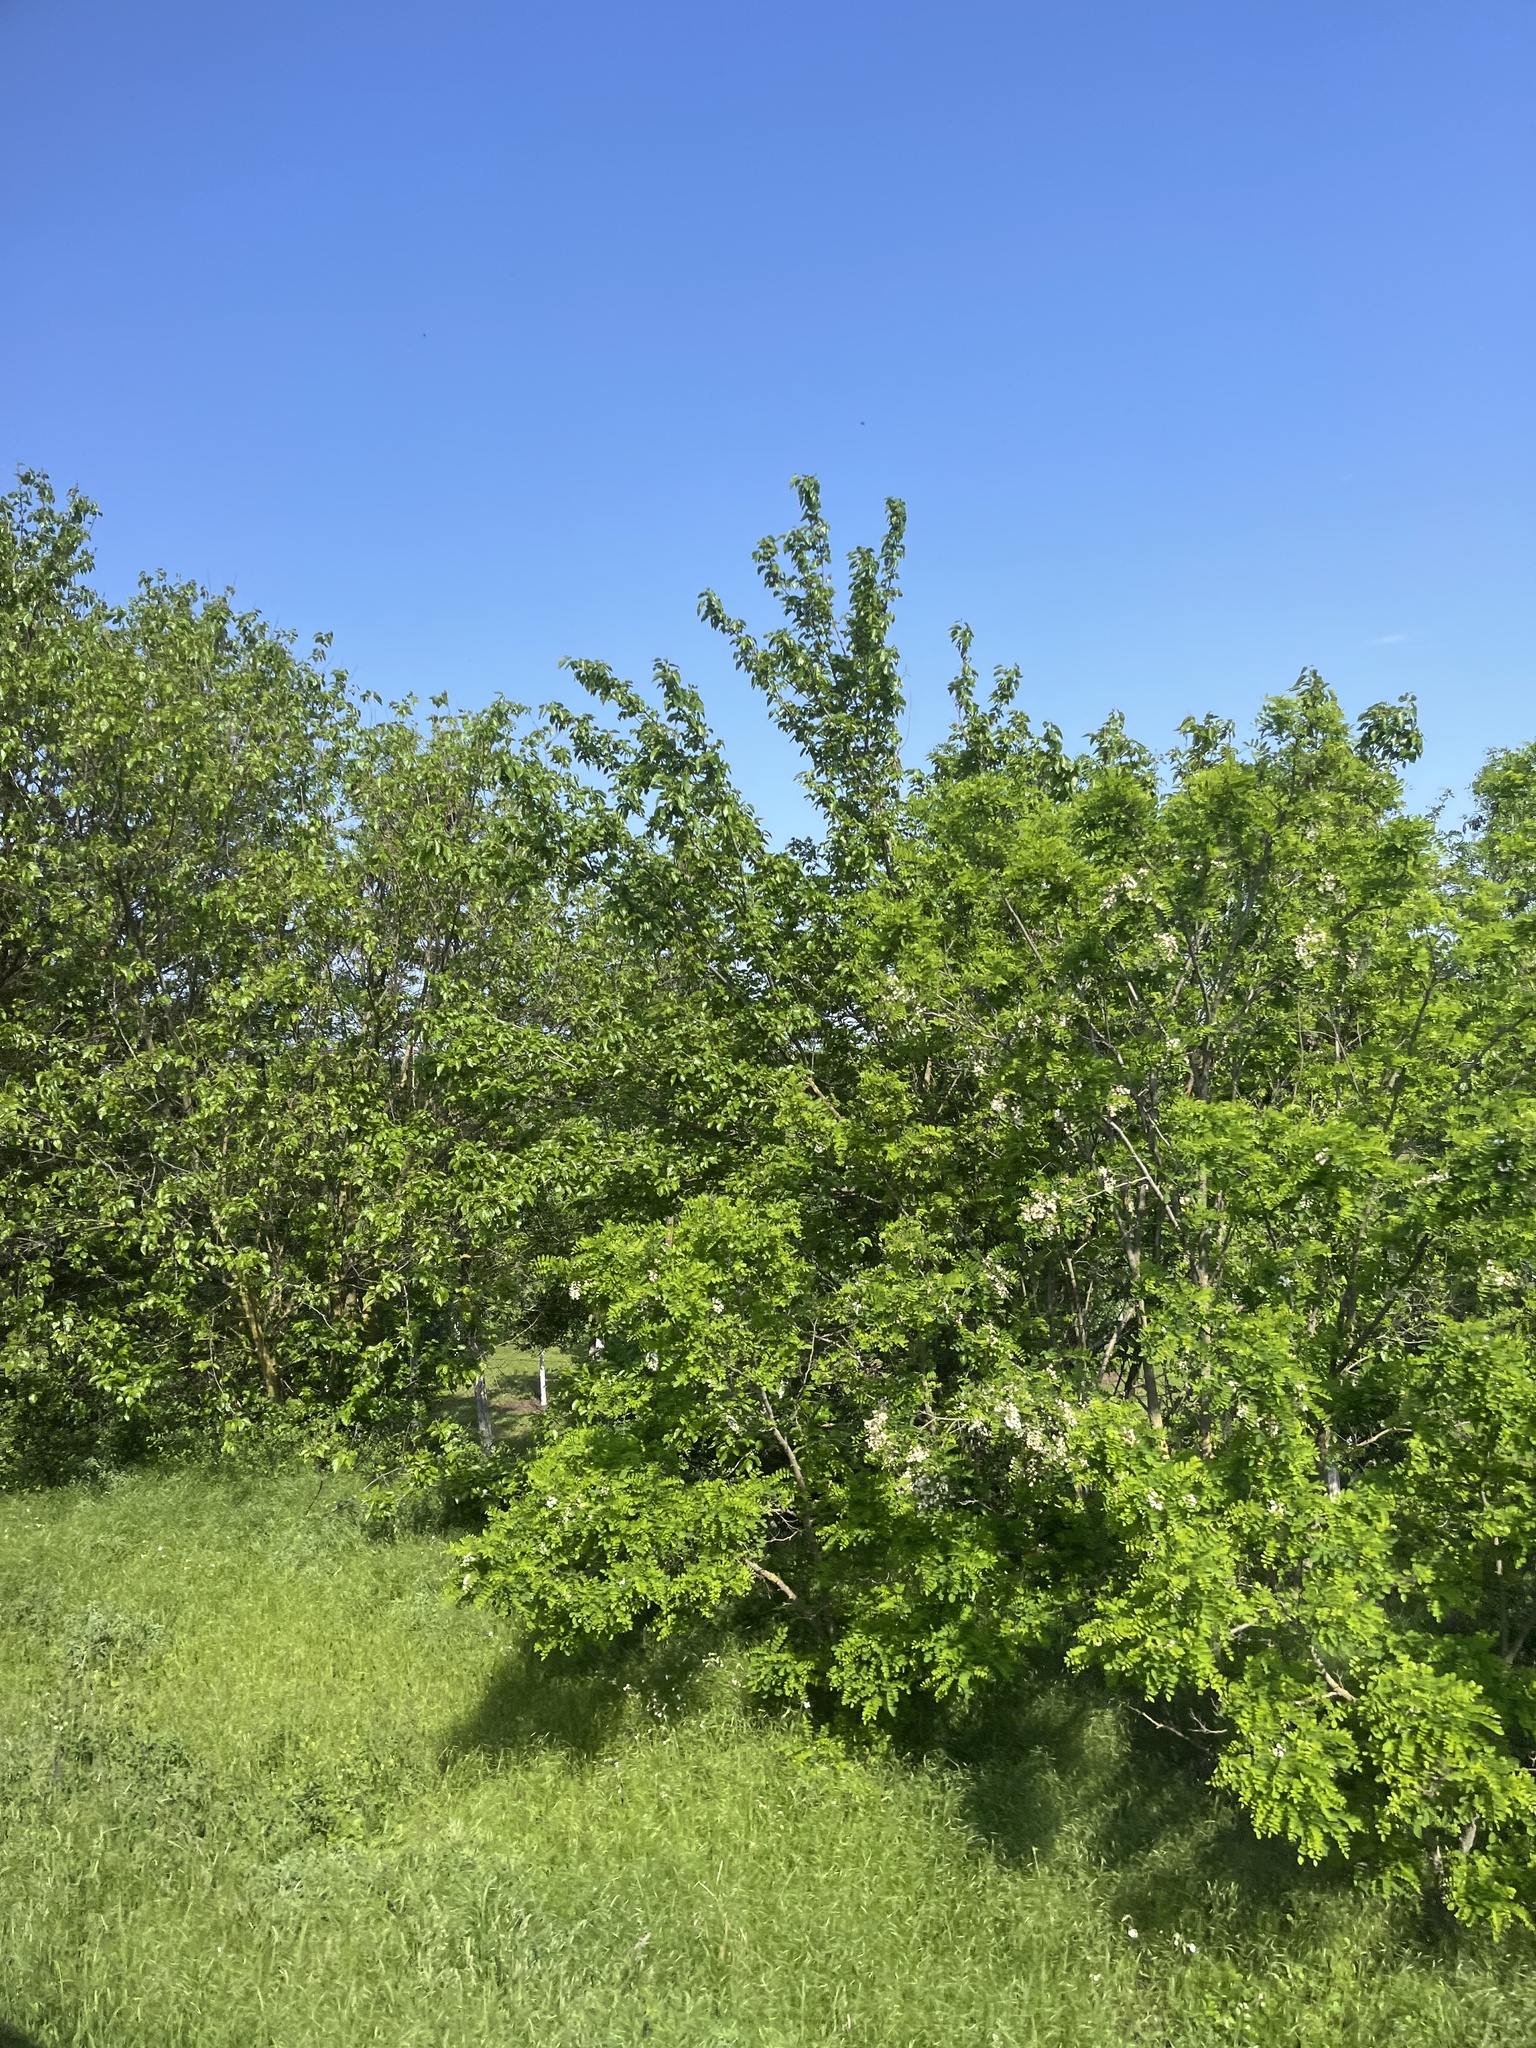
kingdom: Plantae
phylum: Tracheophyta
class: Magnoliopsida
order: Fabales
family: Fabaceae
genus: Robinia
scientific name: Robinia pseudoacacia
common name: Black locust
